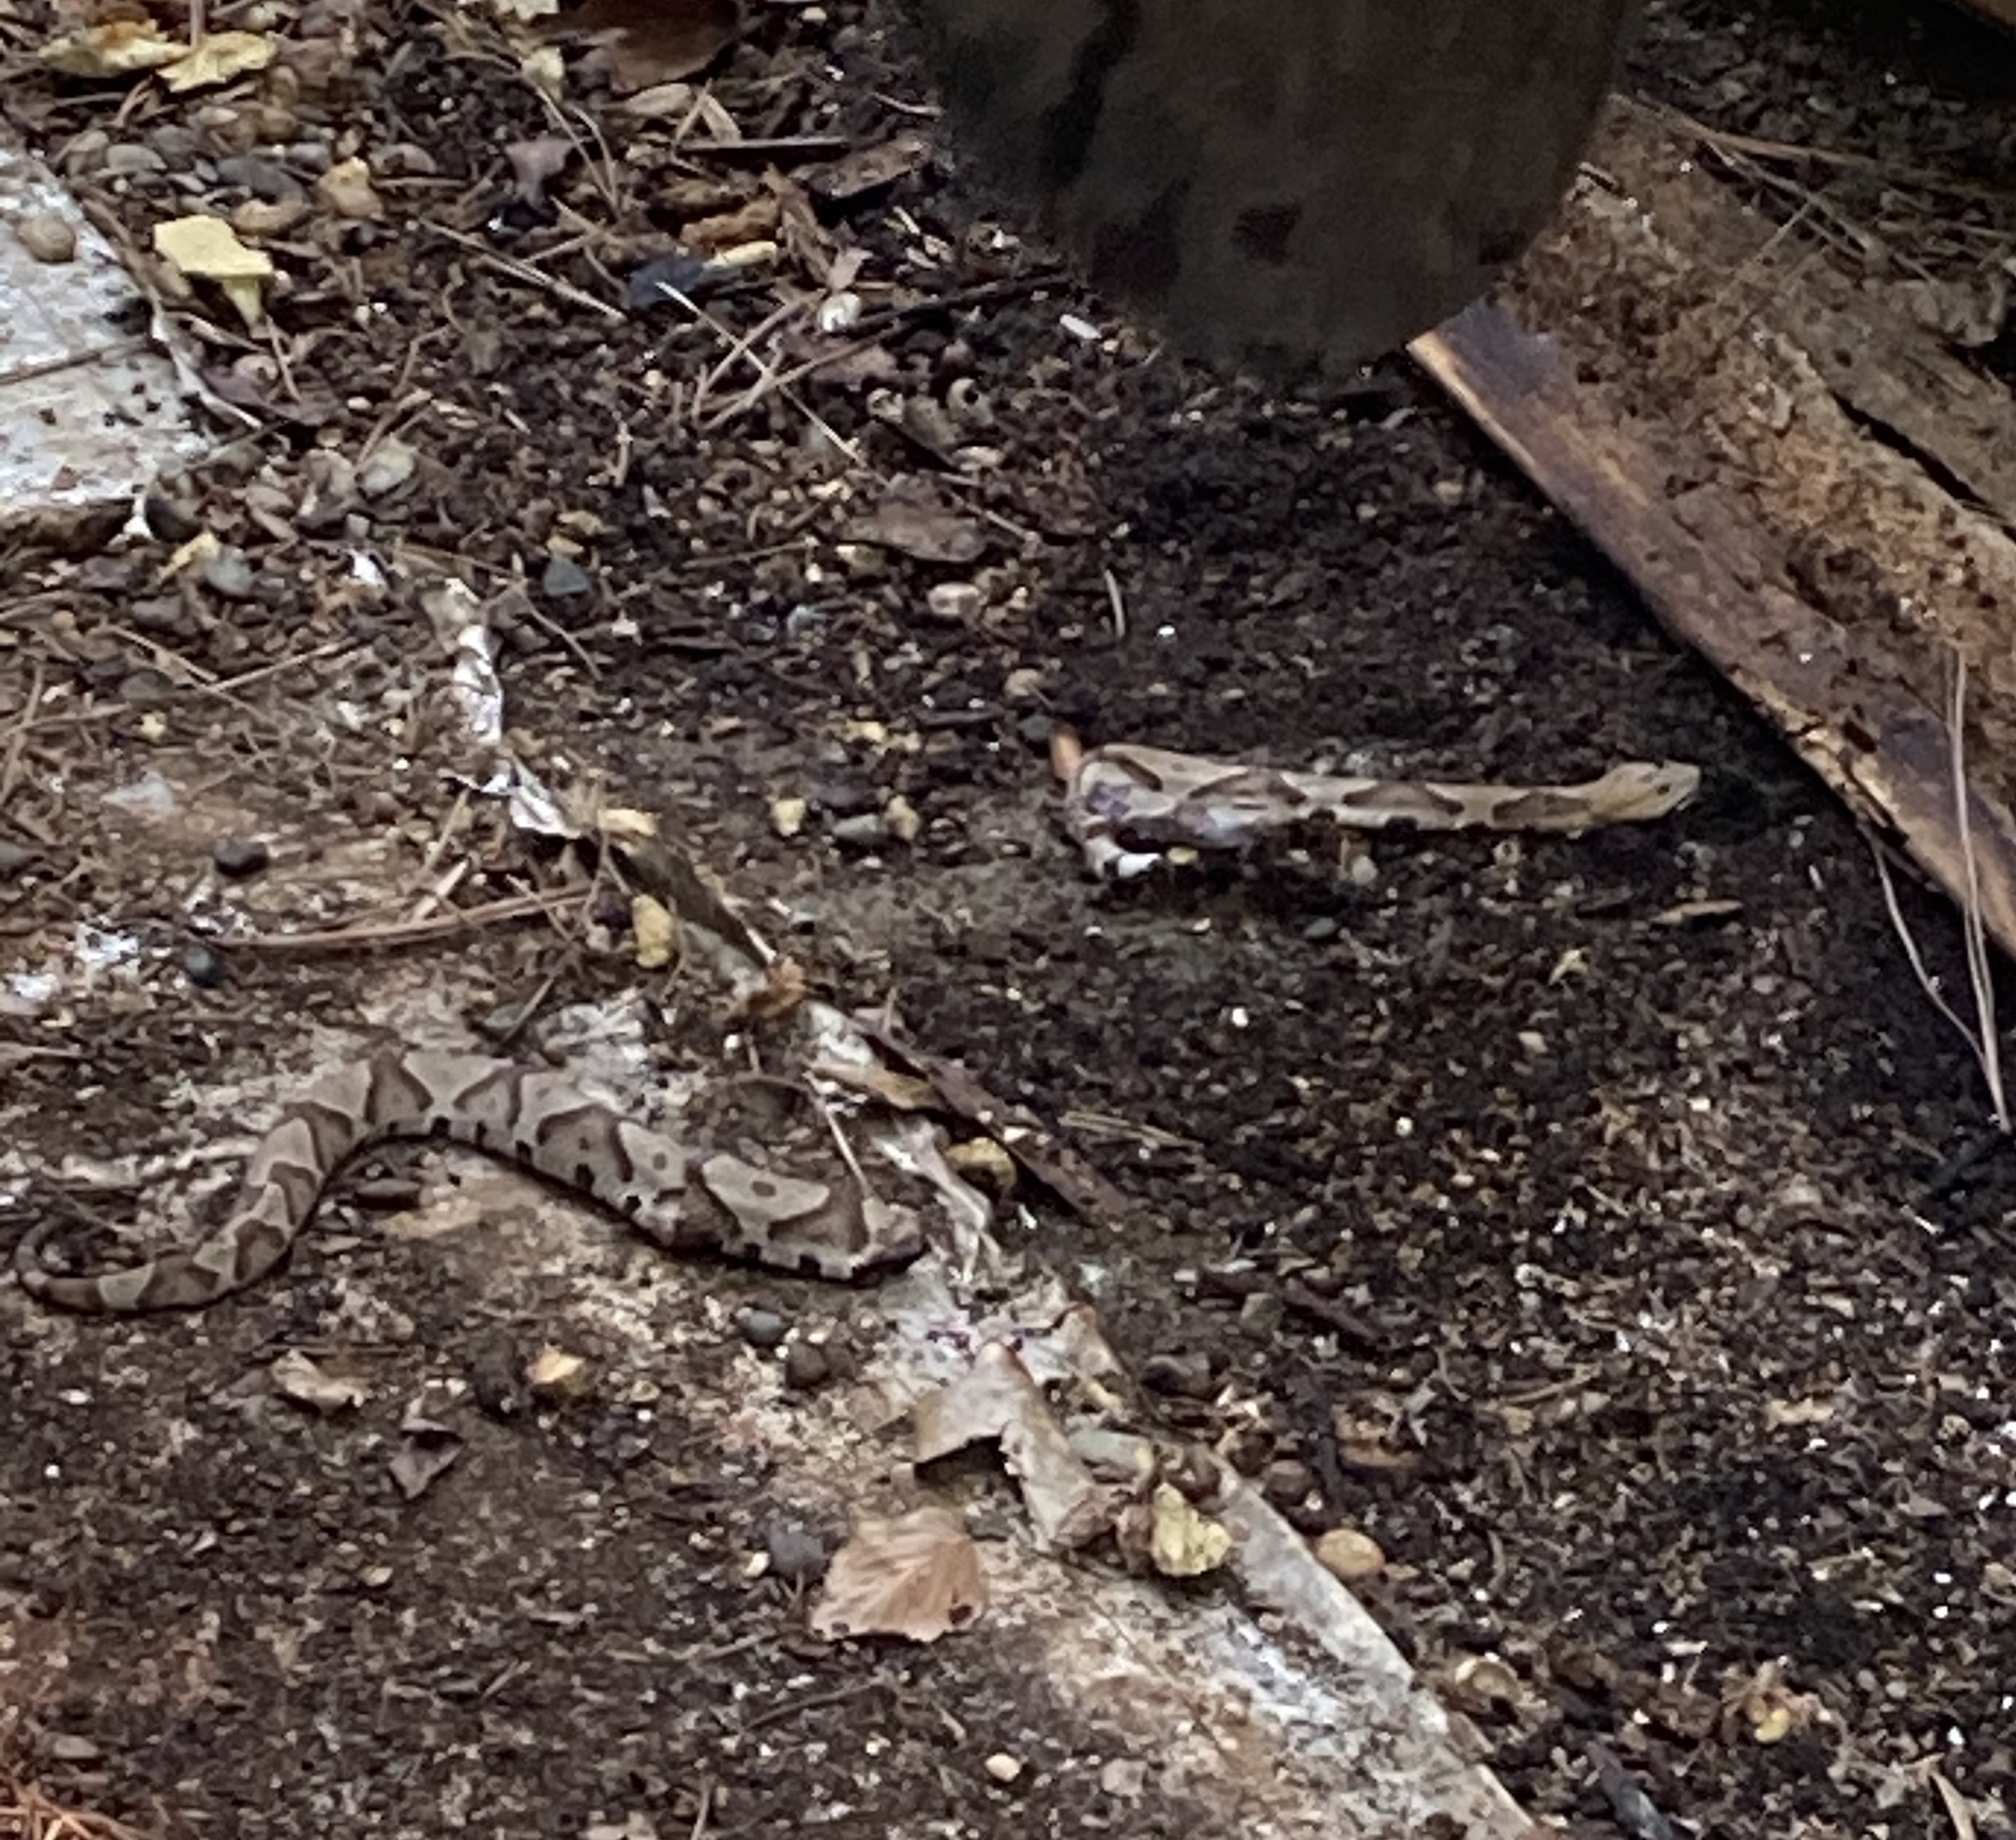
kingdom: Animalia
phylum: Chordata
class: Squamata
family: Viperidae
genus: Agkistrodon
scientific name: Agkistrodon contortrix
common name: Northern copperhead
